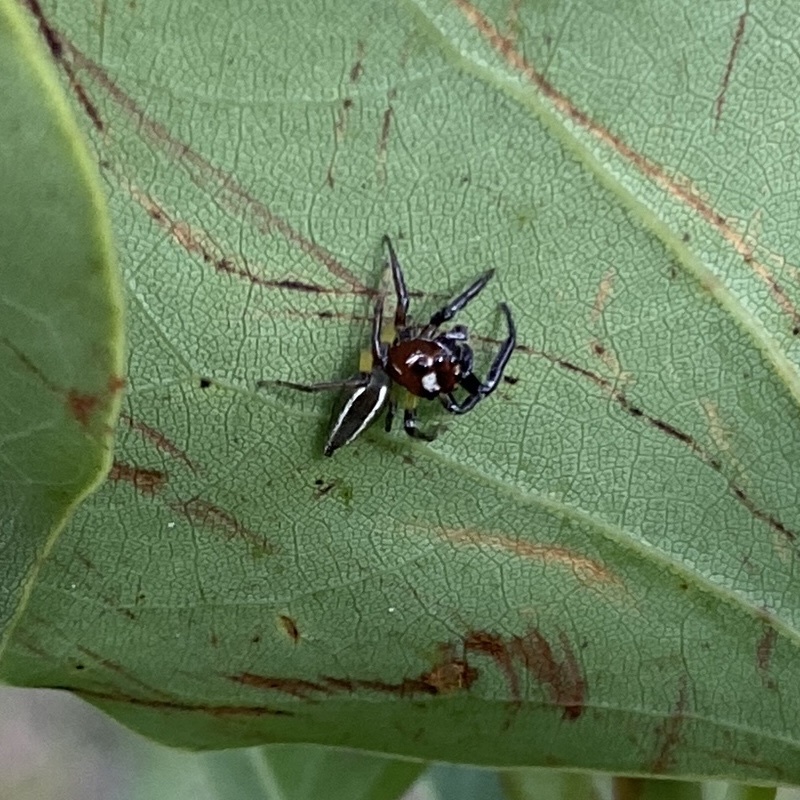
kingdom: Animalia
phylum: Arthropoda
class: Arachnida
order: Araneae
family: Salticidae
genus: Colonus
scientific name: Colonus sylvanus
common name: Jumping spiders
